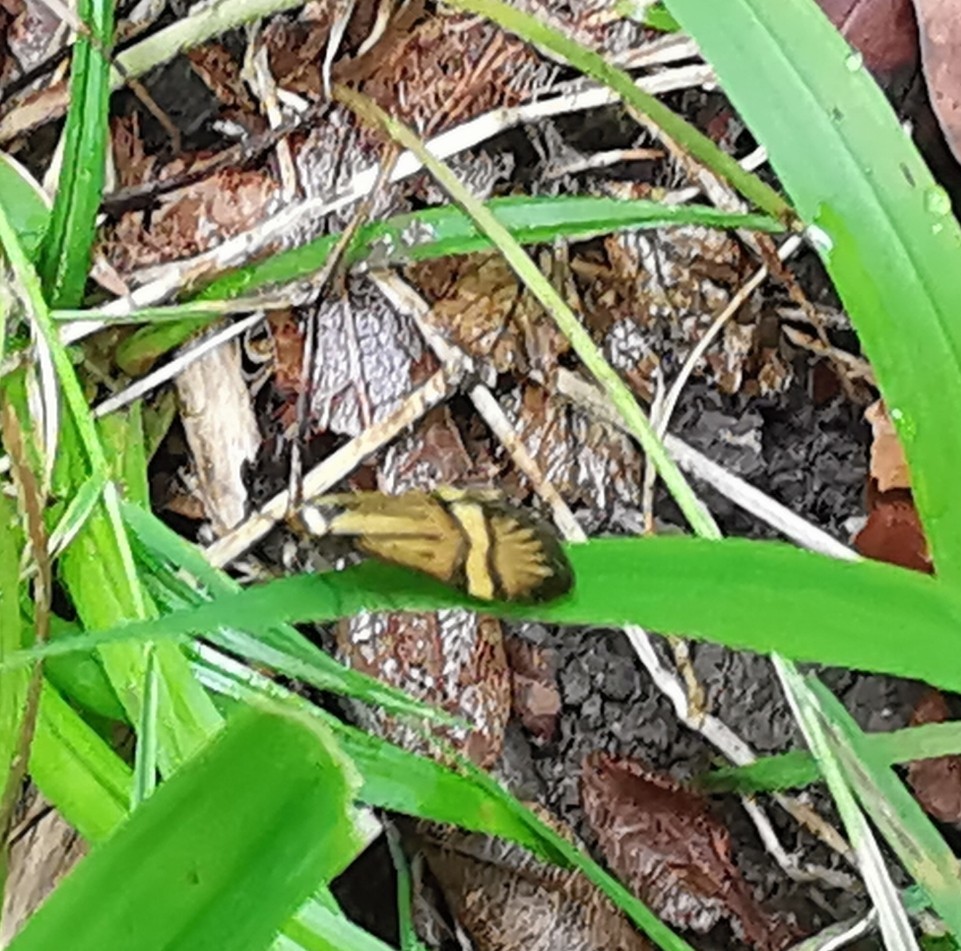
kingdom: Animalia
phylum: Arthropoda
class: Insecta
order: Lepidoptera
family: Adelidae
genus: Nemophora
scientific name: Nemophora
